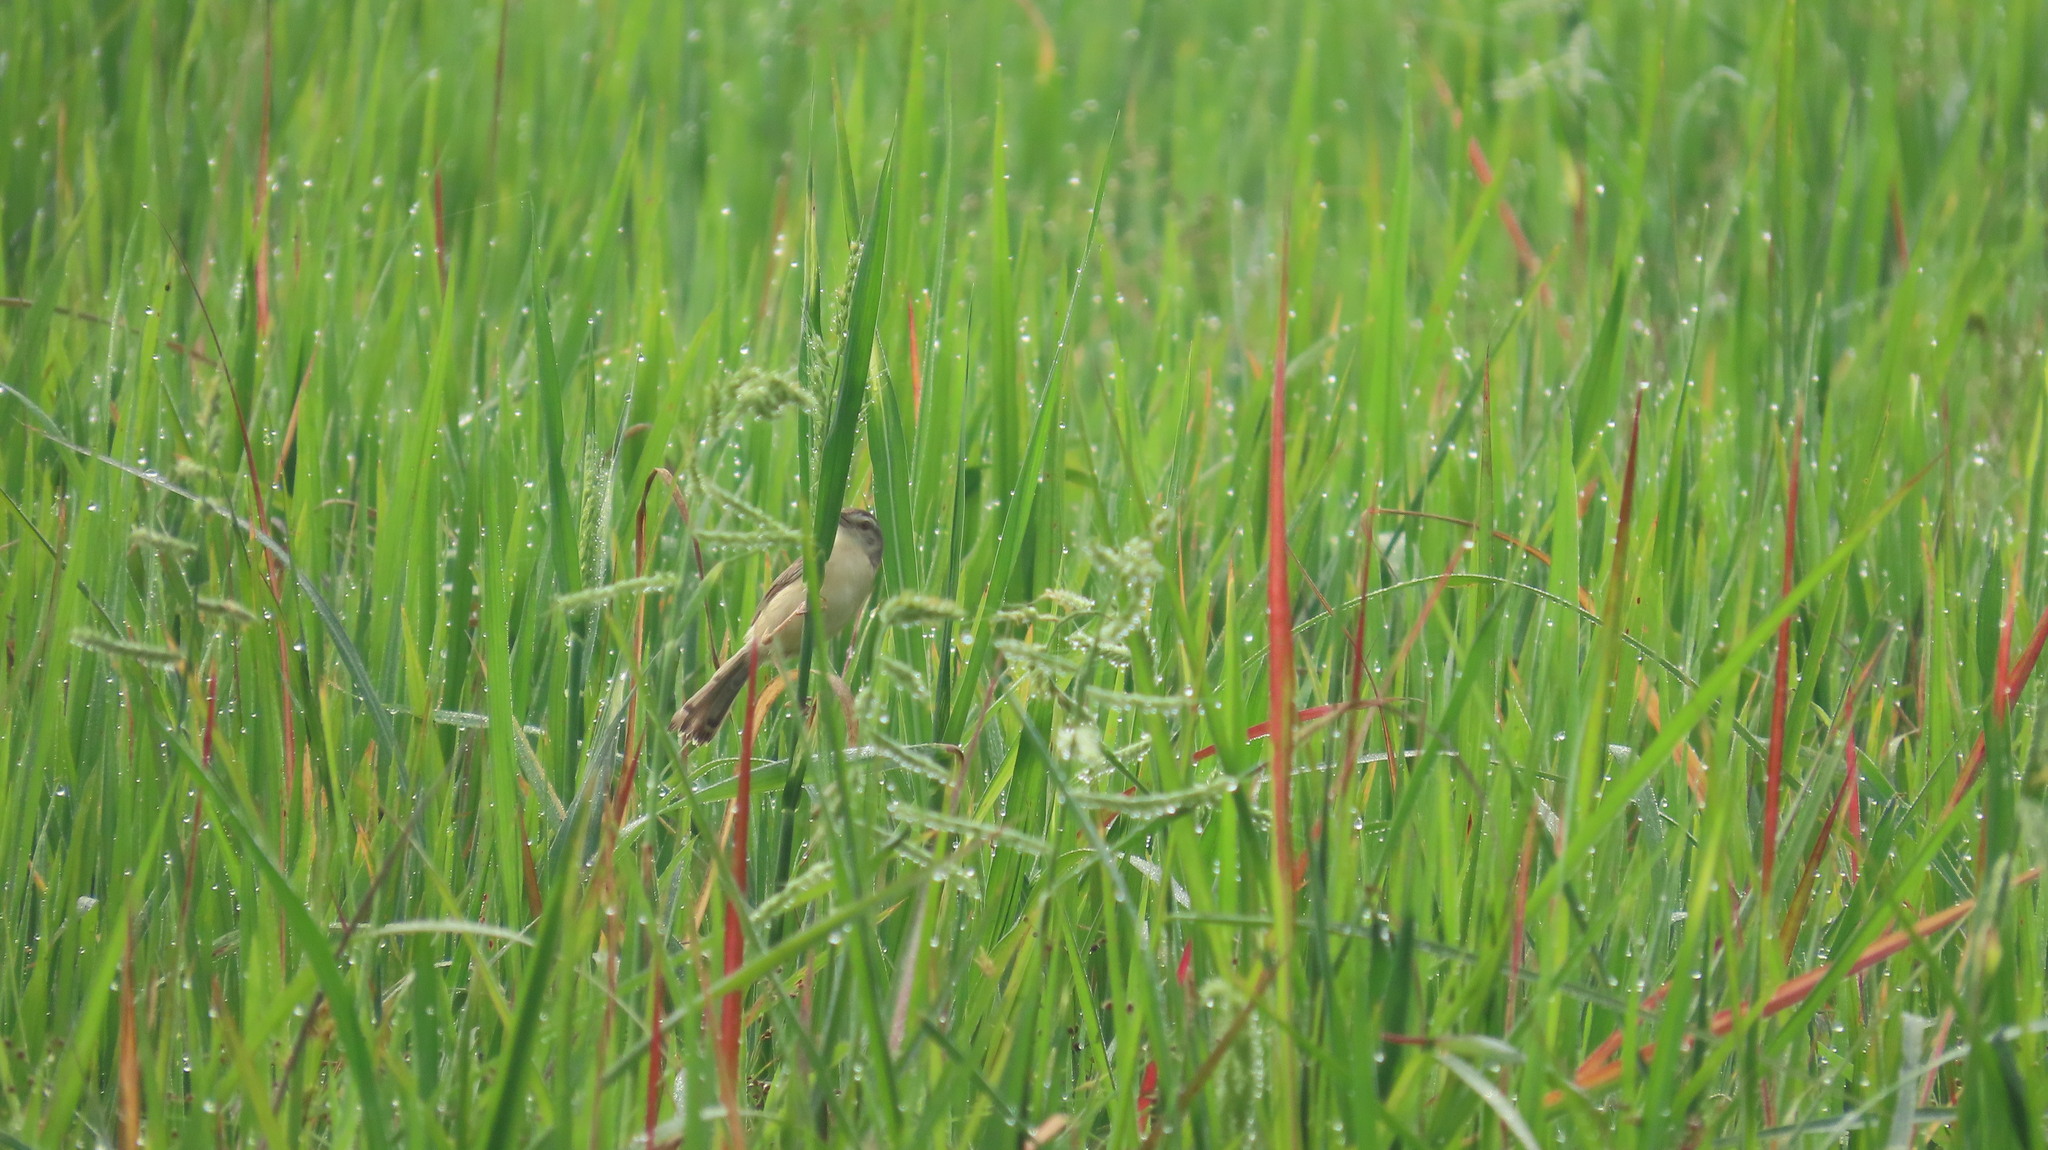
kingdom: Animalia
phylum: Chordata
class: Aves
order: Passeriformes
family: Cisticolidae
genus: Prinia
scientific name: Prinia inornata
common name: Plain prinia
